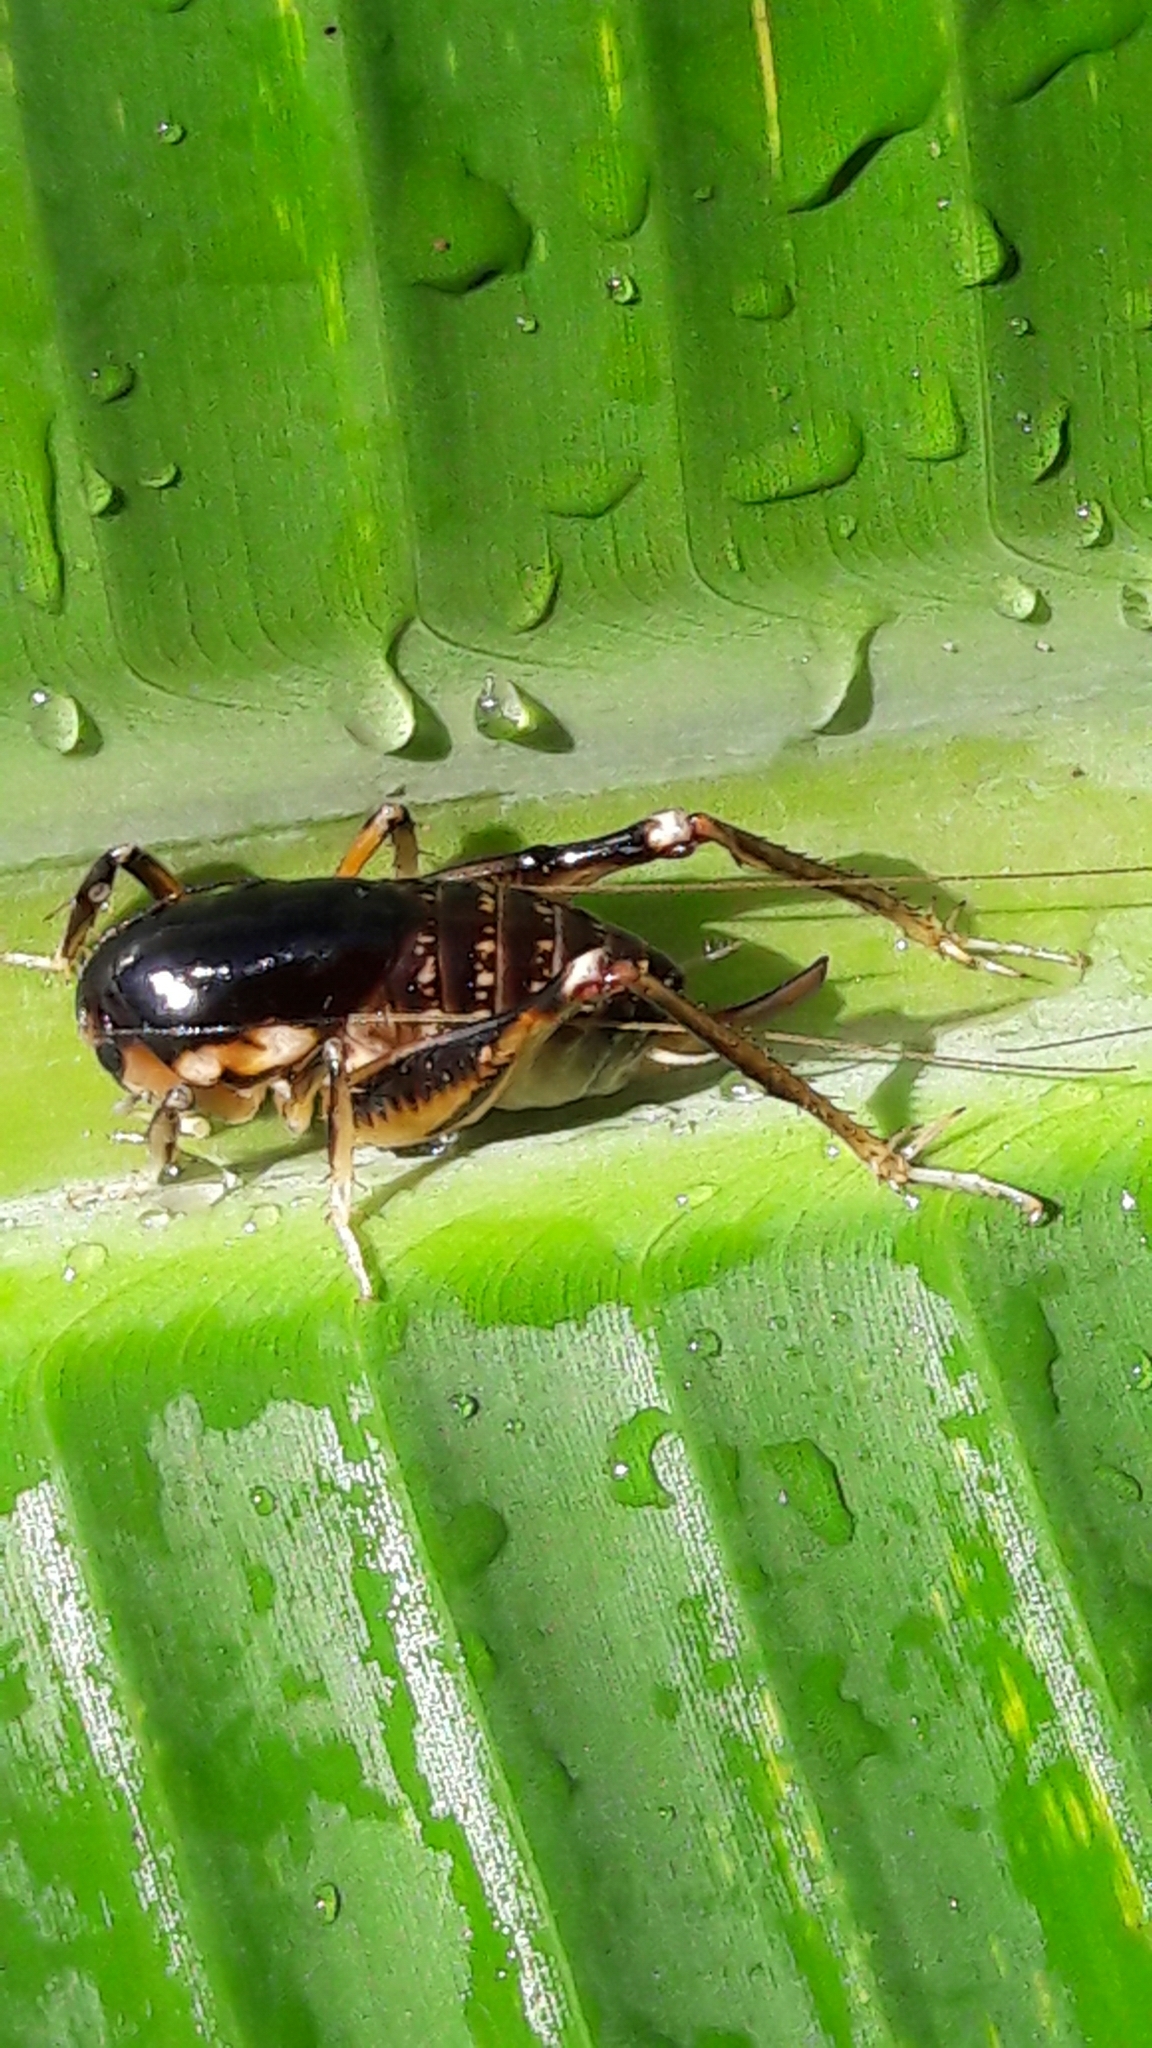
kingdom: Animalia
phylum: Arthropoda
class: Insecta
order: Orthoptera
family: Anostostomatidae
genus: Apotetamenus
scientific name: Apotetamenus clipeatus
